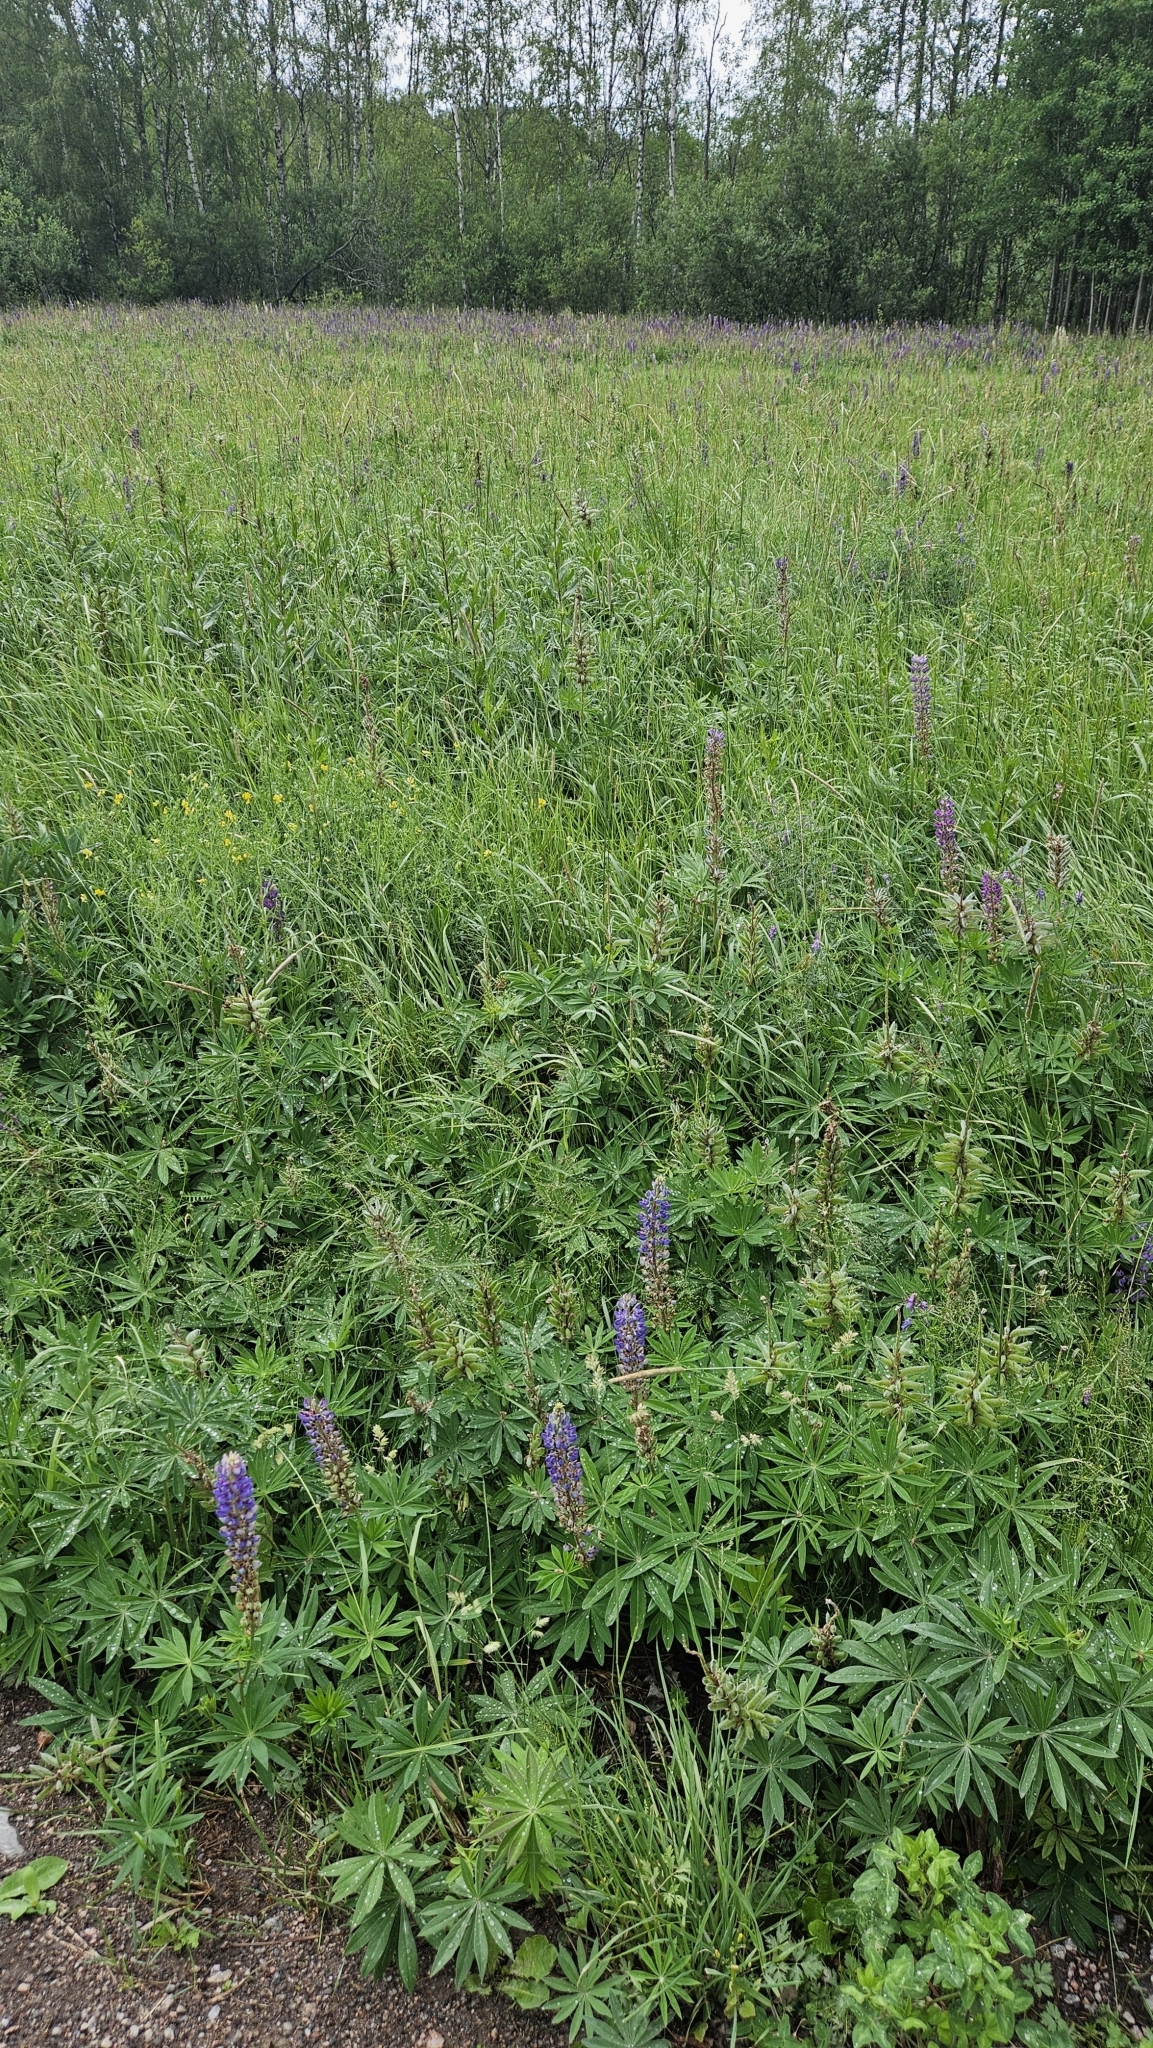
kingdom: Plantae
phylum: Tracheophyta
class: Magnoliopsida
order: Fabales
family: Fabaceae
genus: Lupinus
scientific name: Lupinus polyphyllus
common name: Garden lupin
